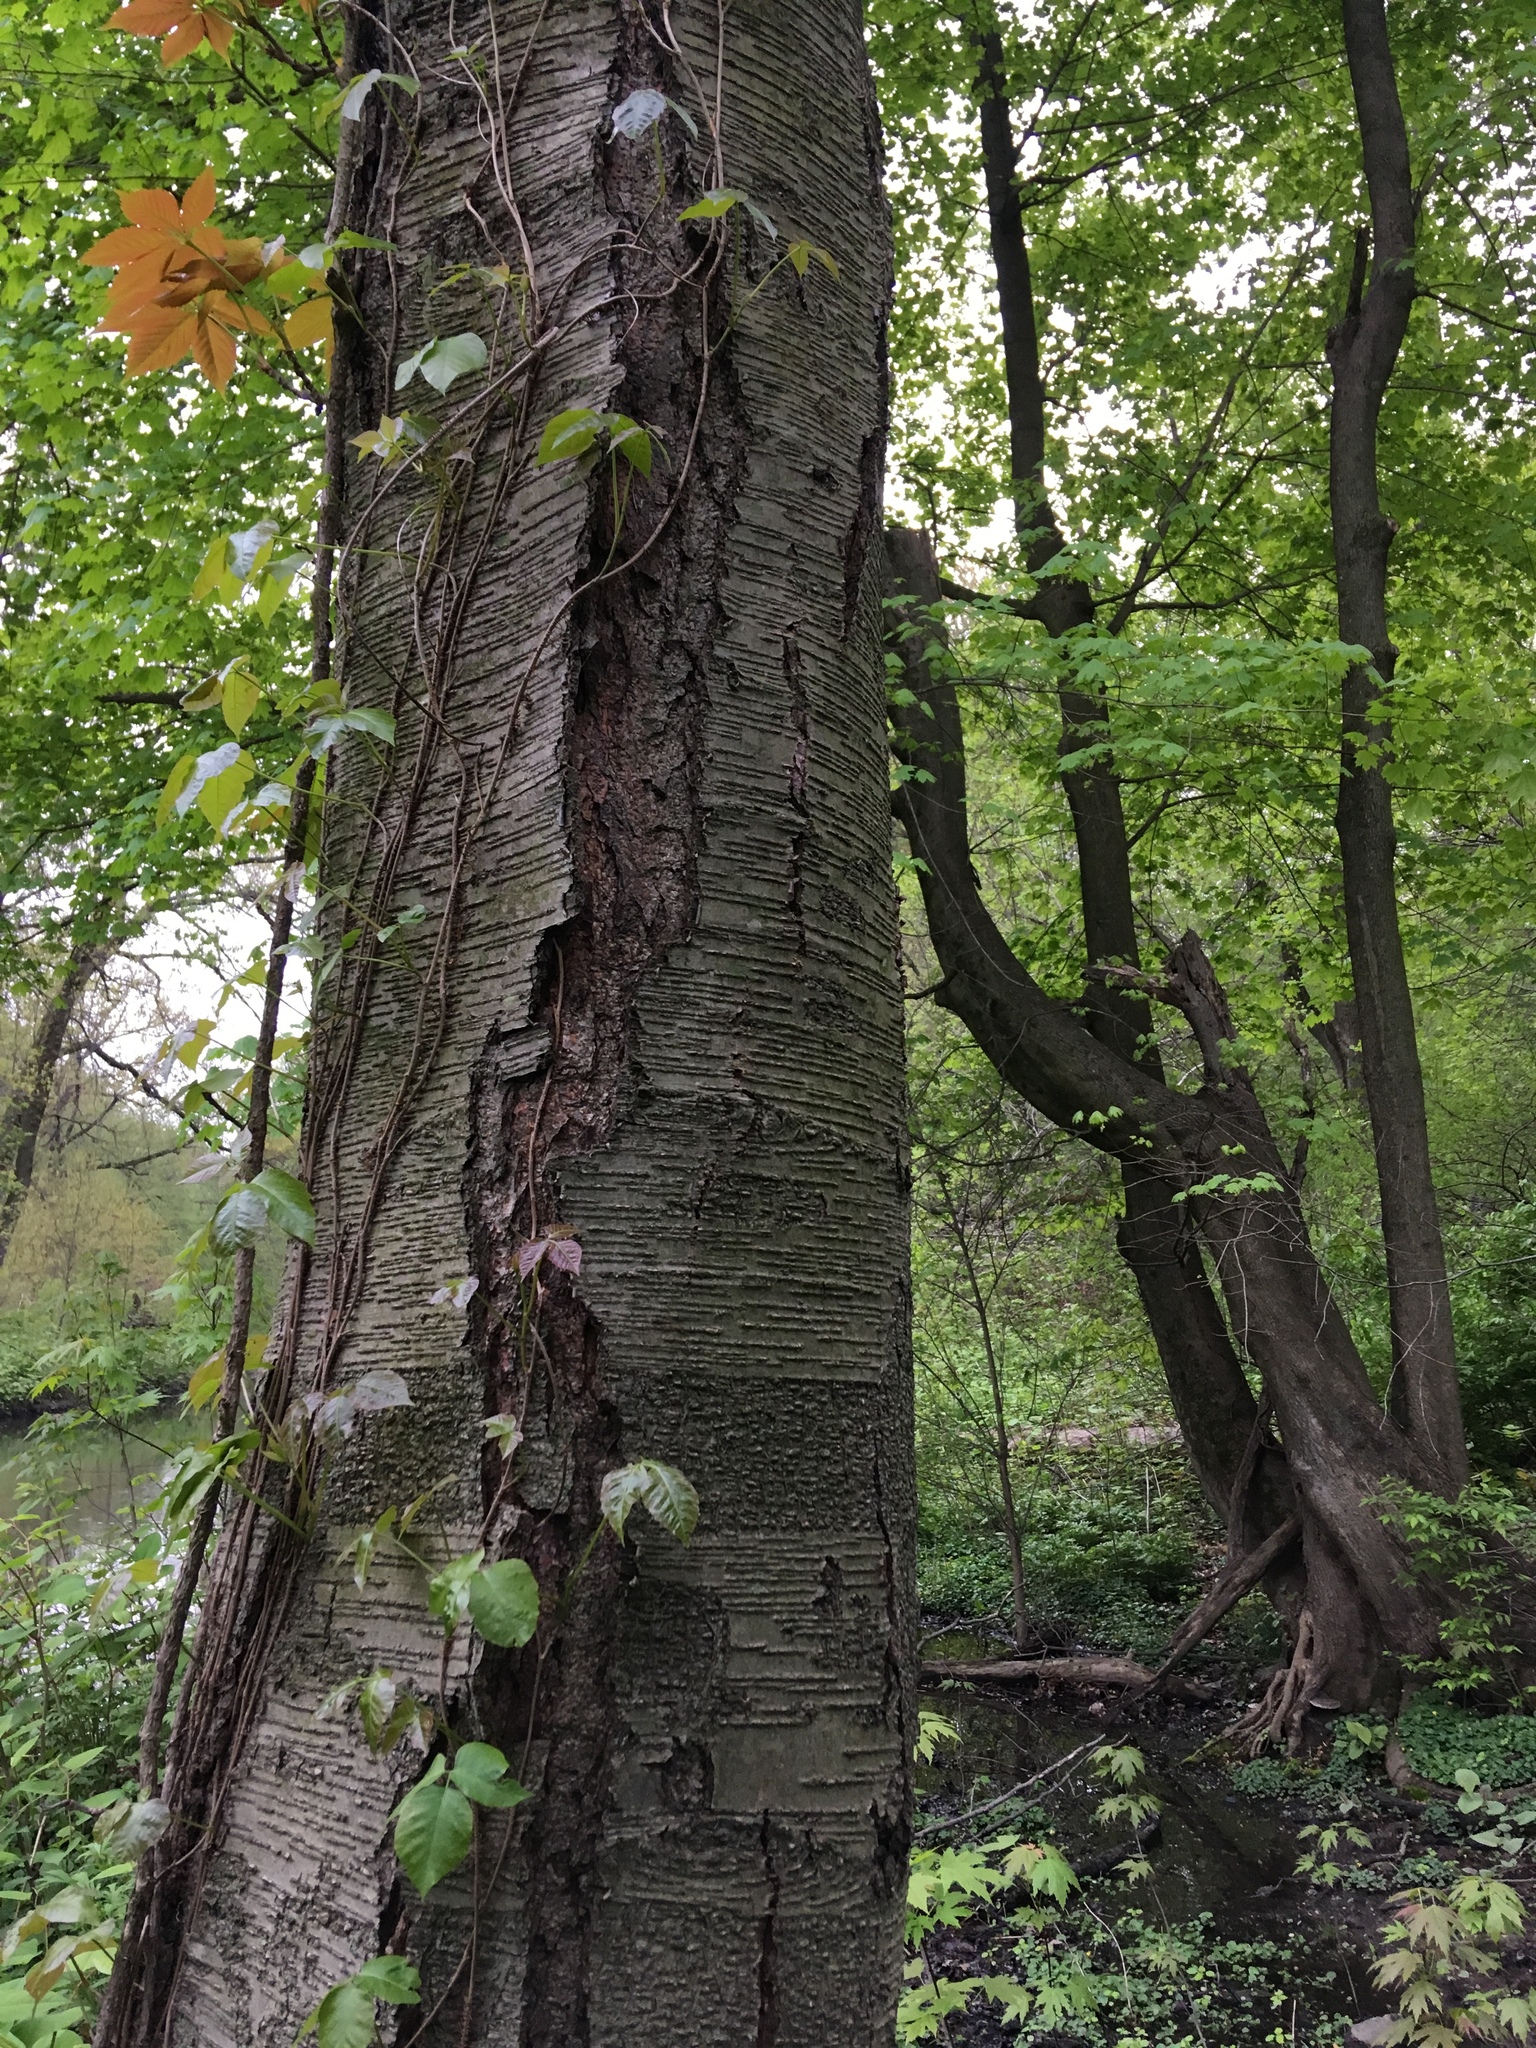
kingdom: Plantae
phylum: Tracheophyta
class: Magnoliopsida
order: Sapindales
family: Anacardiaceae
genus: Toxicodendron
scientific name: Toxicodendron radicans
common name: Poison ivy
